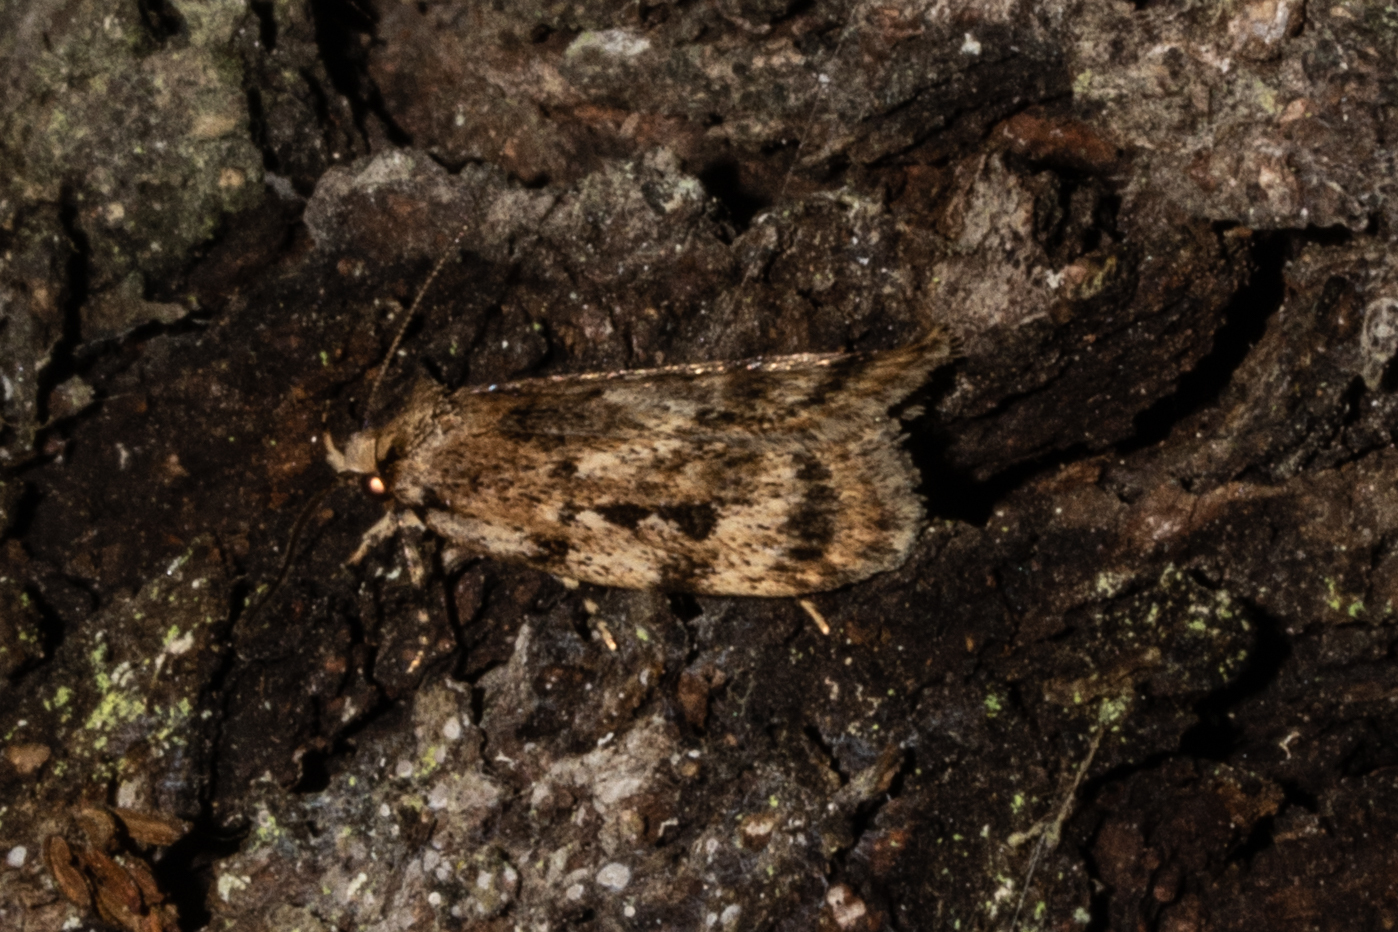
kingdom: Animalia
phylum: Arthropoda
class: Insecta
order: Lepidoptera
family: Oecophoridae
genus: Barea
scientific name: Barea exarcha
